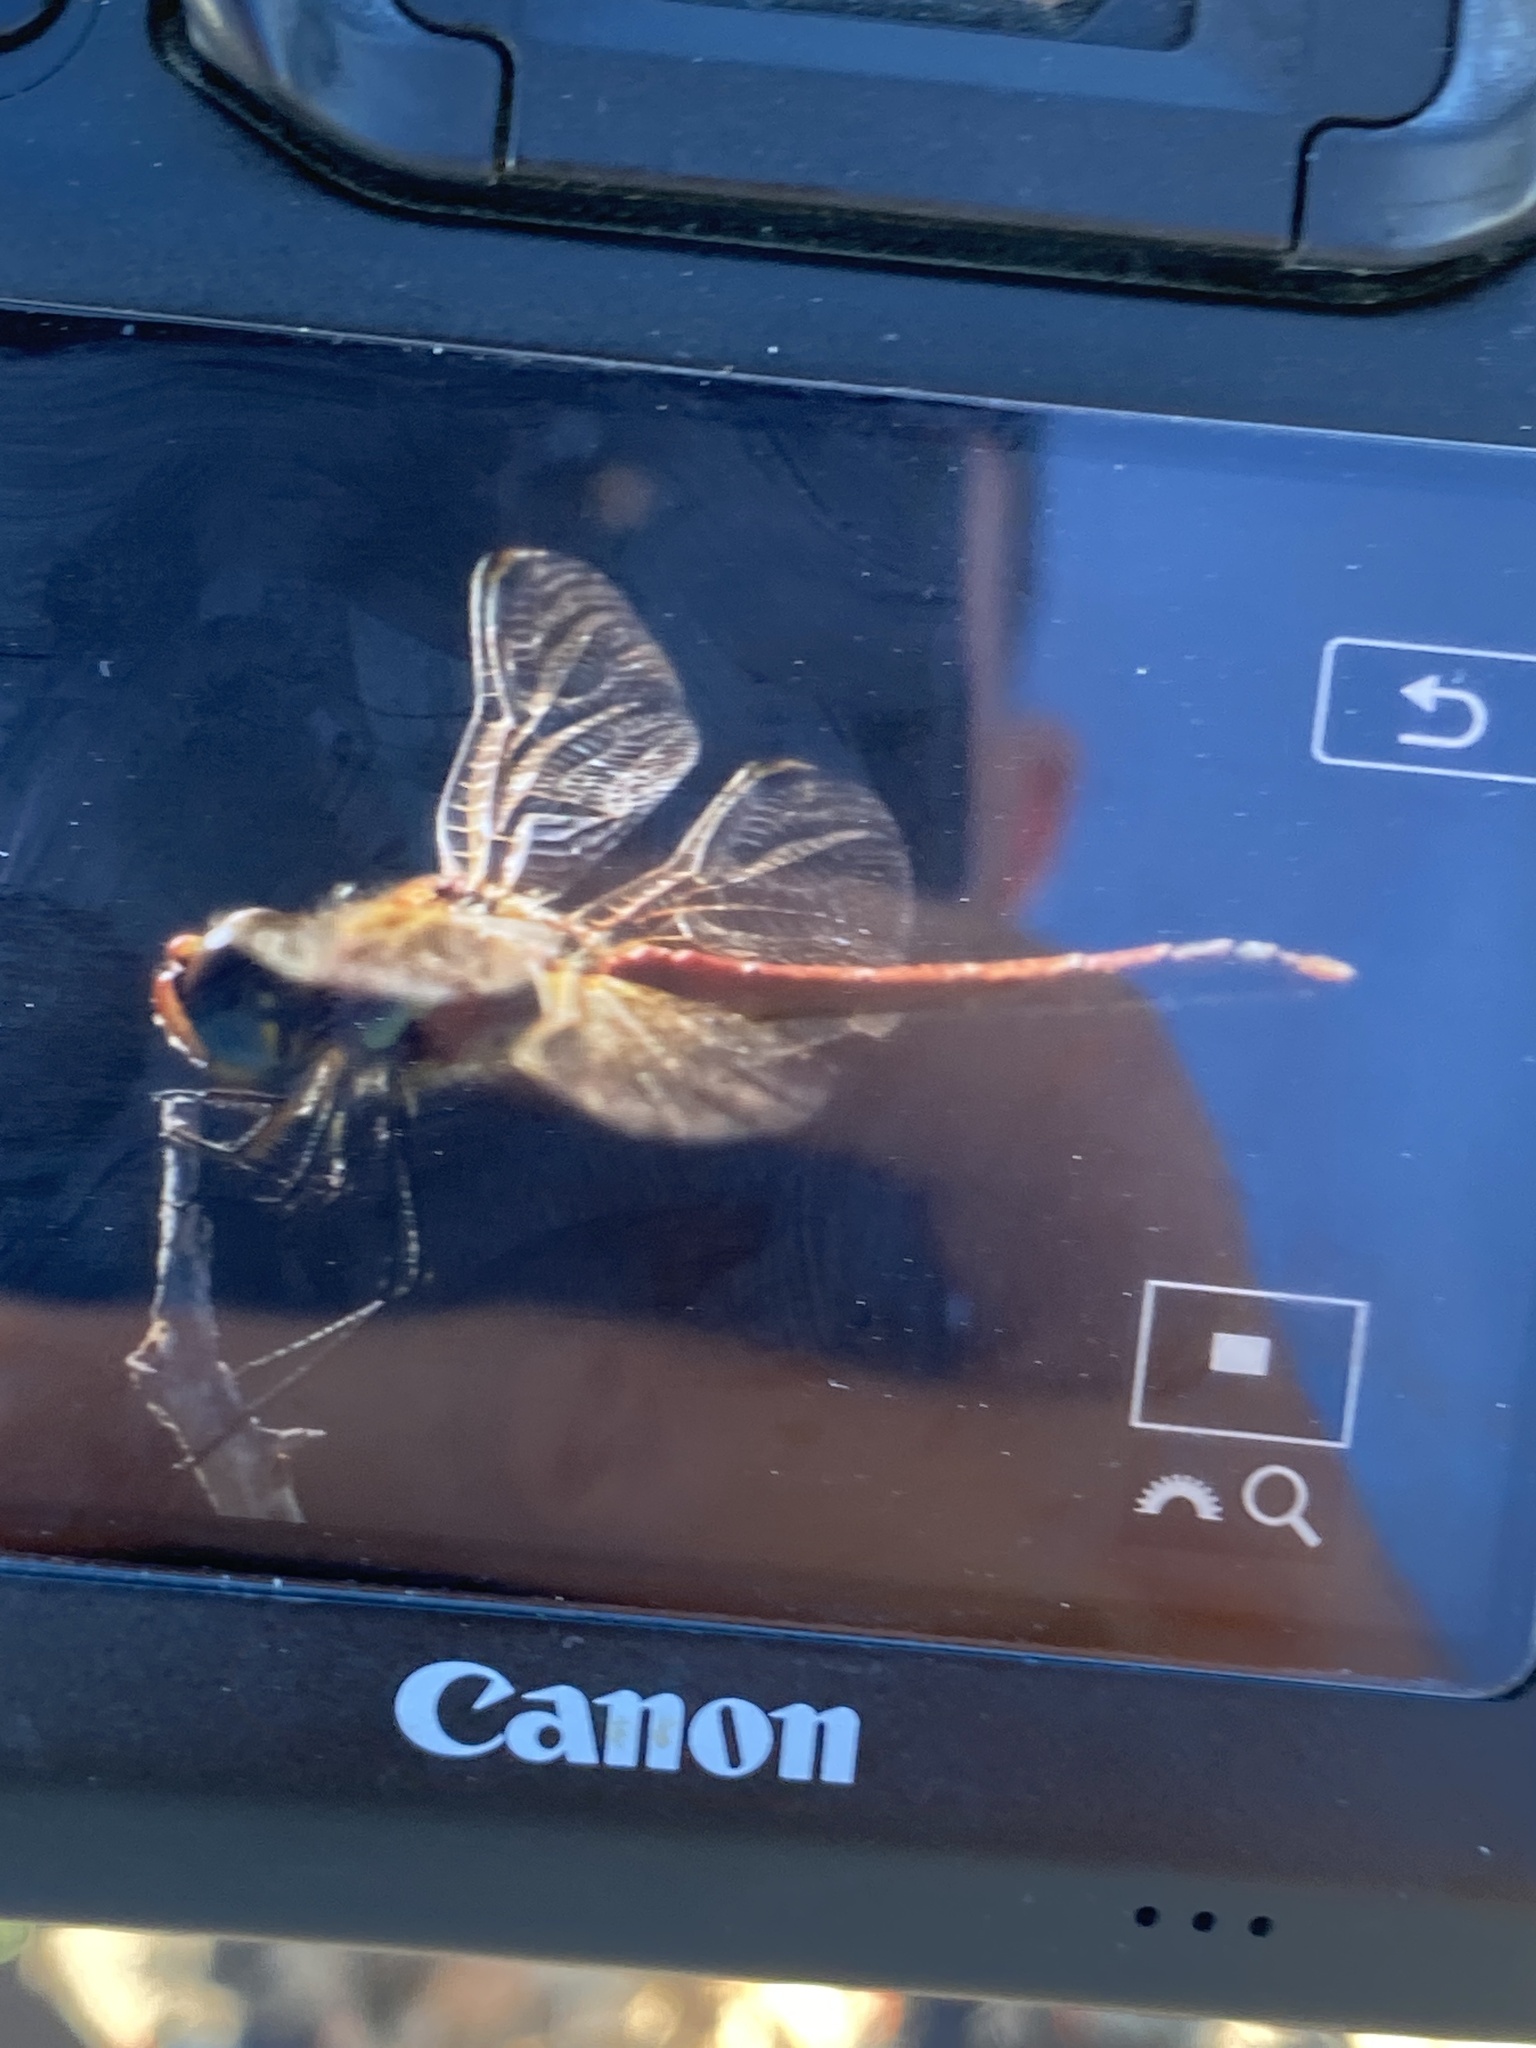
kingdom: Animalia
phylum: Arthropoda
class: Insecta
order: Odonata
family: Libellulidae
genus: Sympetrum
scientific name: Sympetrum fonscolombii
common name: Red-veined darter
